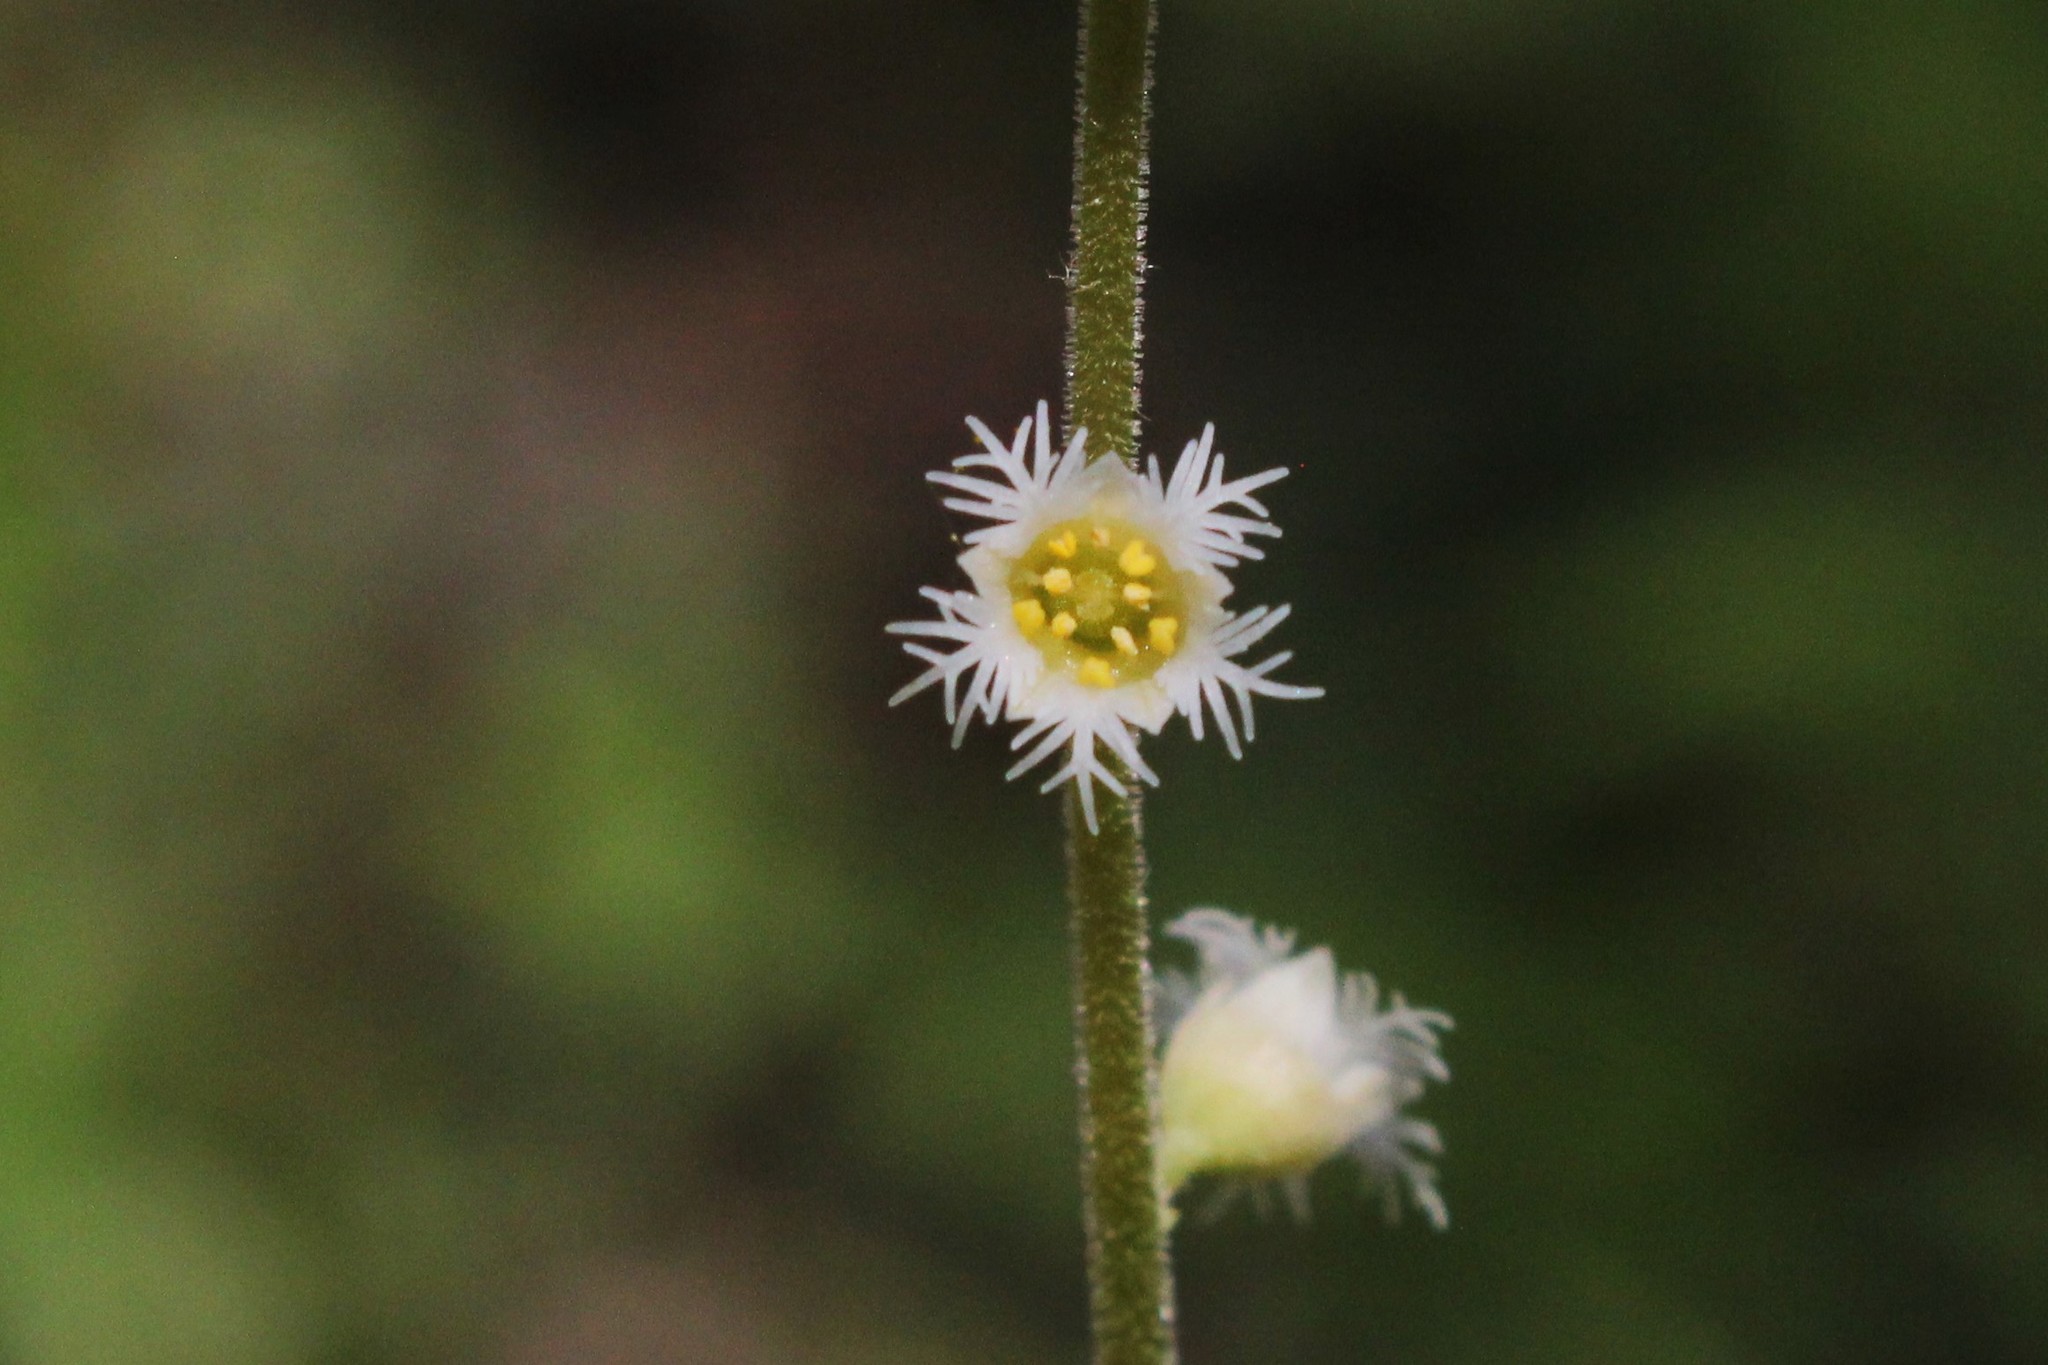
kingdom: Plantae
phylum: Tracheophyta
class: Magnoliopsida
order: Saxifragales
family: Saxifragaceae
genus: Mitella
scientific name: Mitella diphylla
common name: Coolwort
